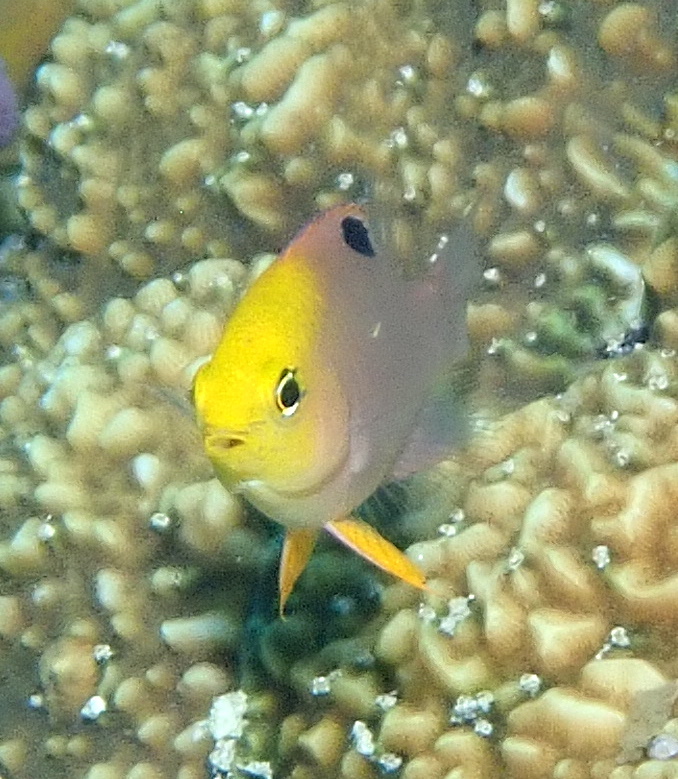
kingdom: Animalia
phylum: Chordata
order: Perciformes
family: Pomacentridae
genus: Chrysiptera
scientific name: Chrysiptera talboti
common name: Talbot's demoiselle
